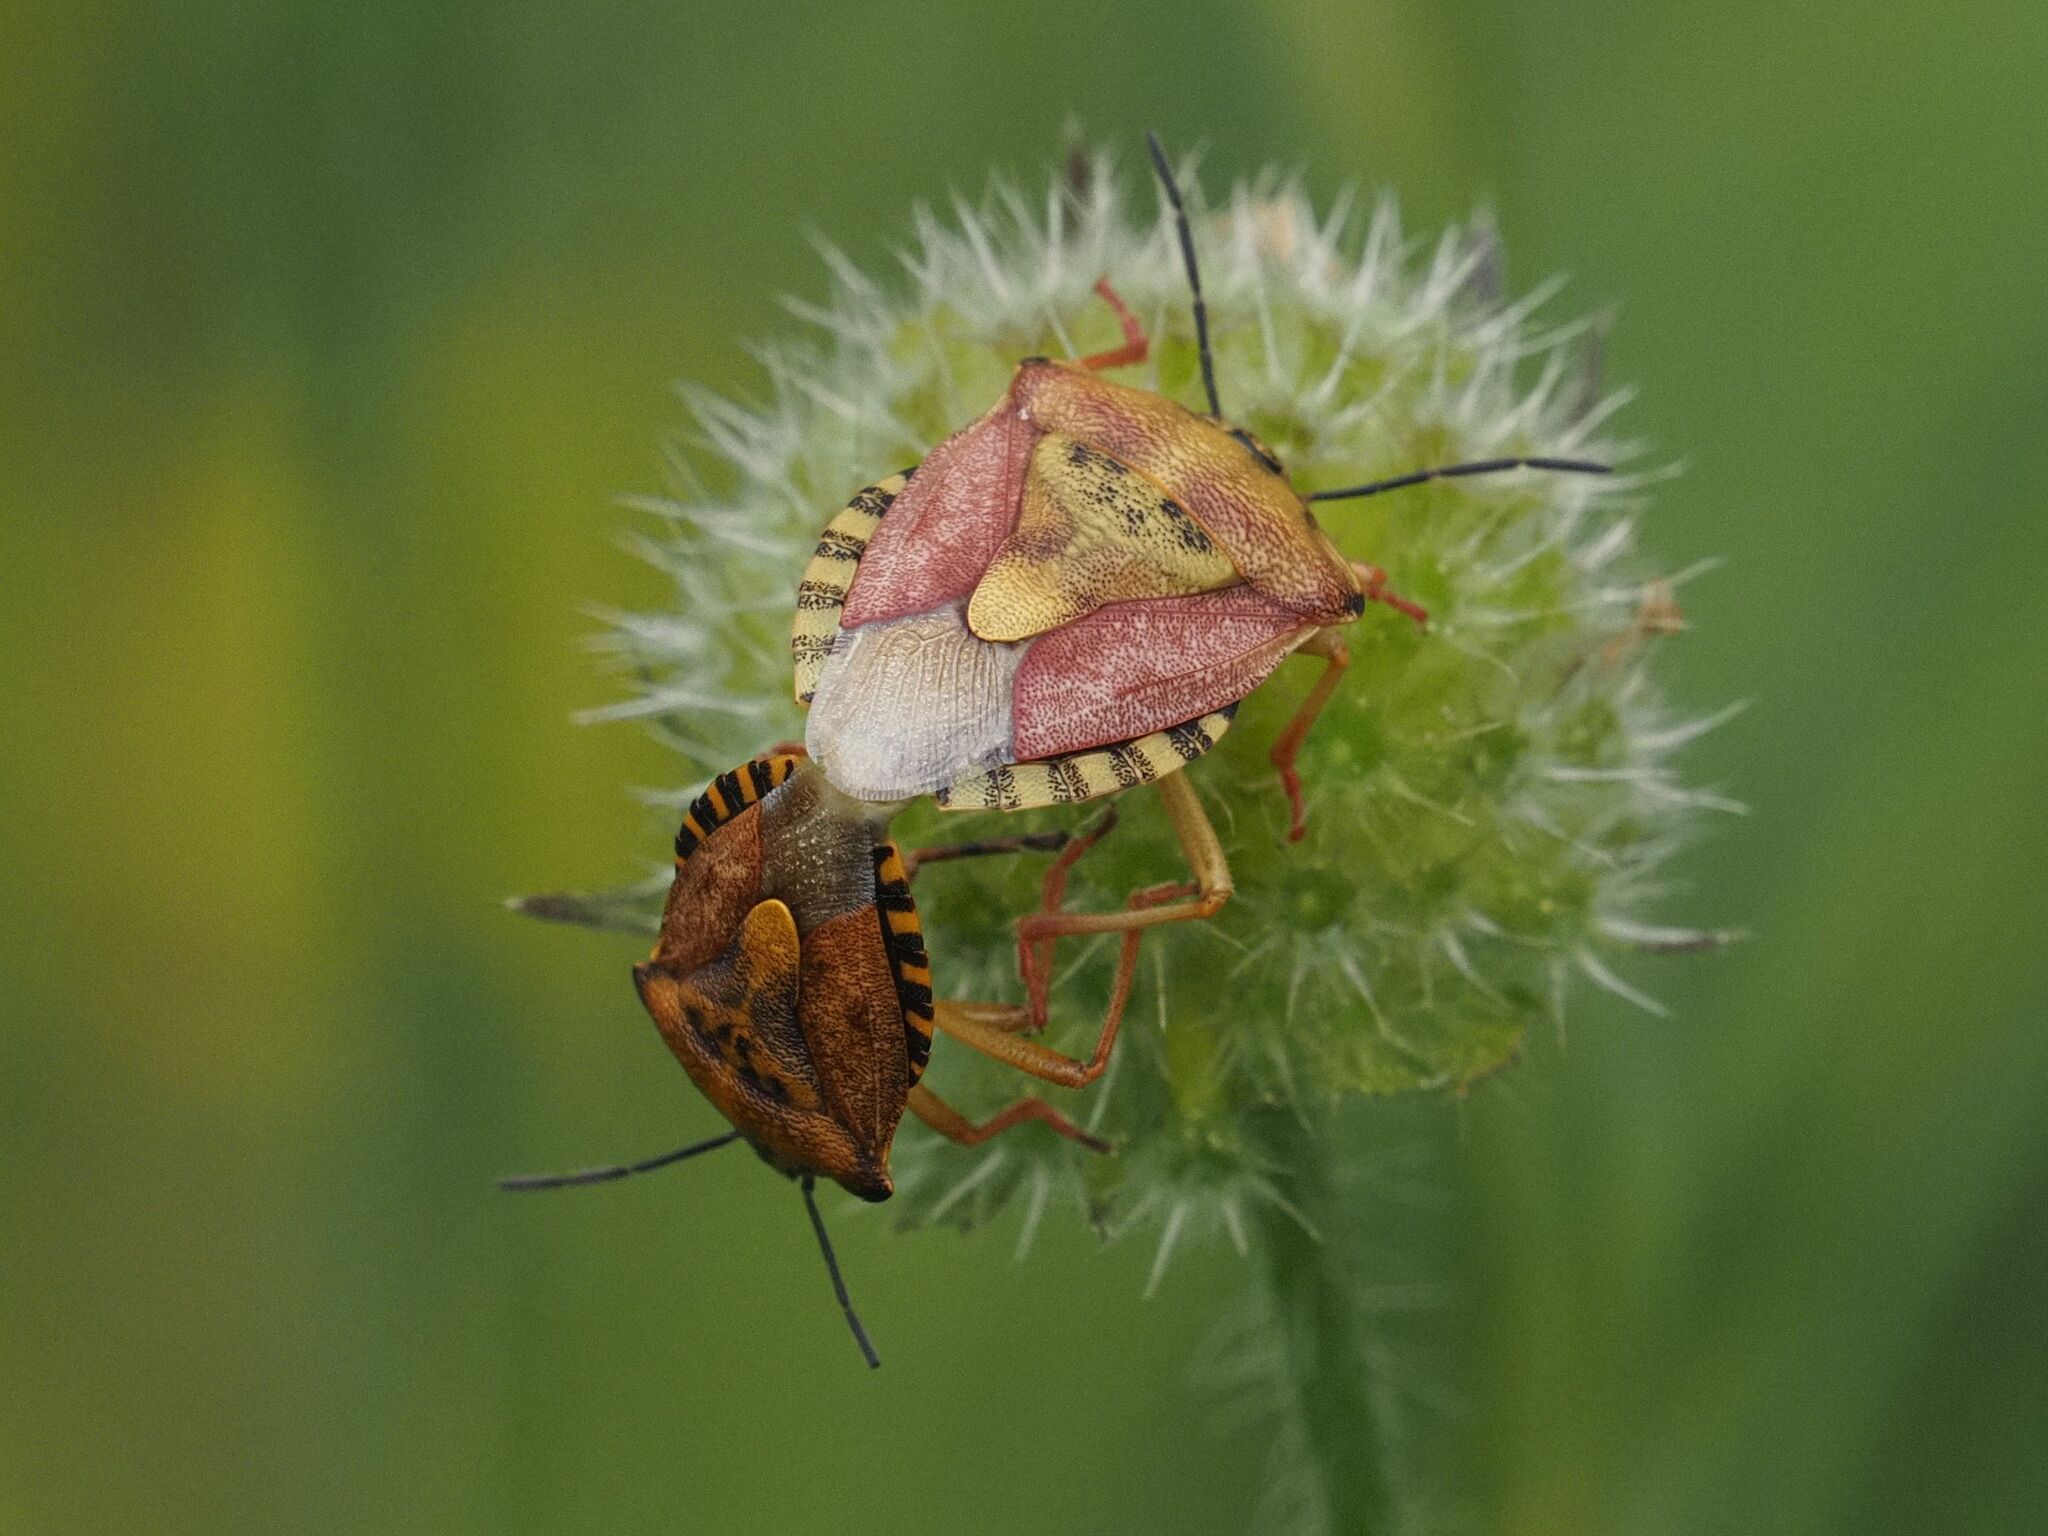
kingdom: Animalia
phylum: Arthropoda
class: Insecta
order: Hemiptera
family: Pentatomidae
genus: Carpocoris
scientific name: Carpocoris purpureipennis
